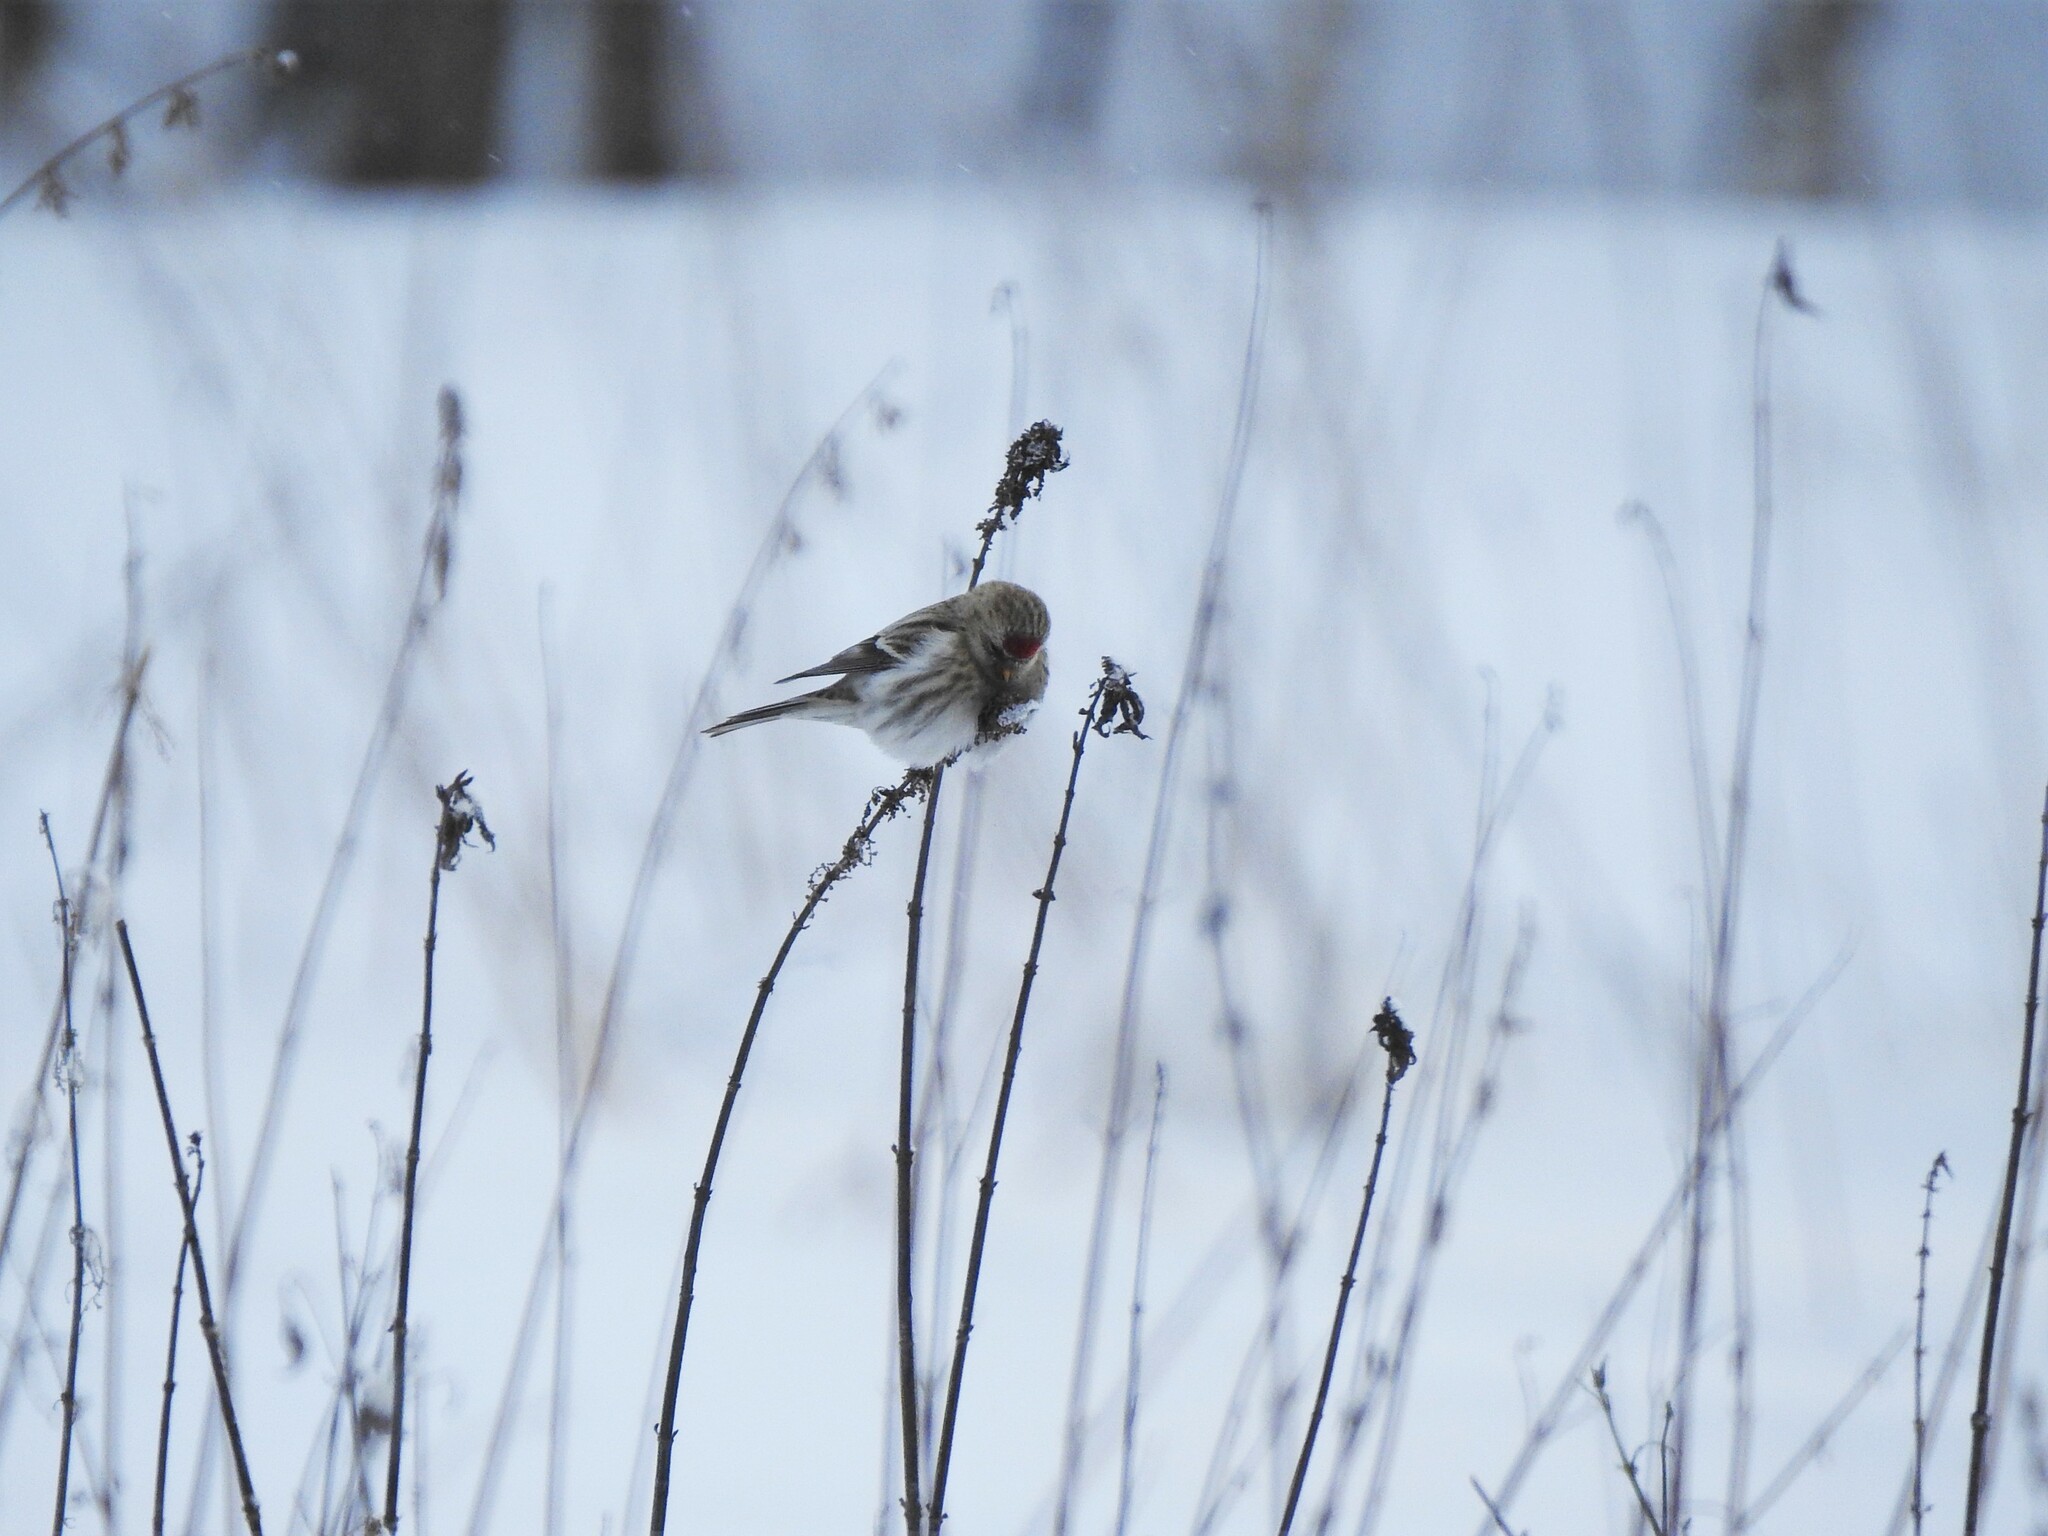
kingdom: Animalia
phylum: Chordata
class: Aves
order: Passeriformes
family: Fringillidae
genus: Acanthis
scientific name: Acanthis flammea
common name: Common redpoll
